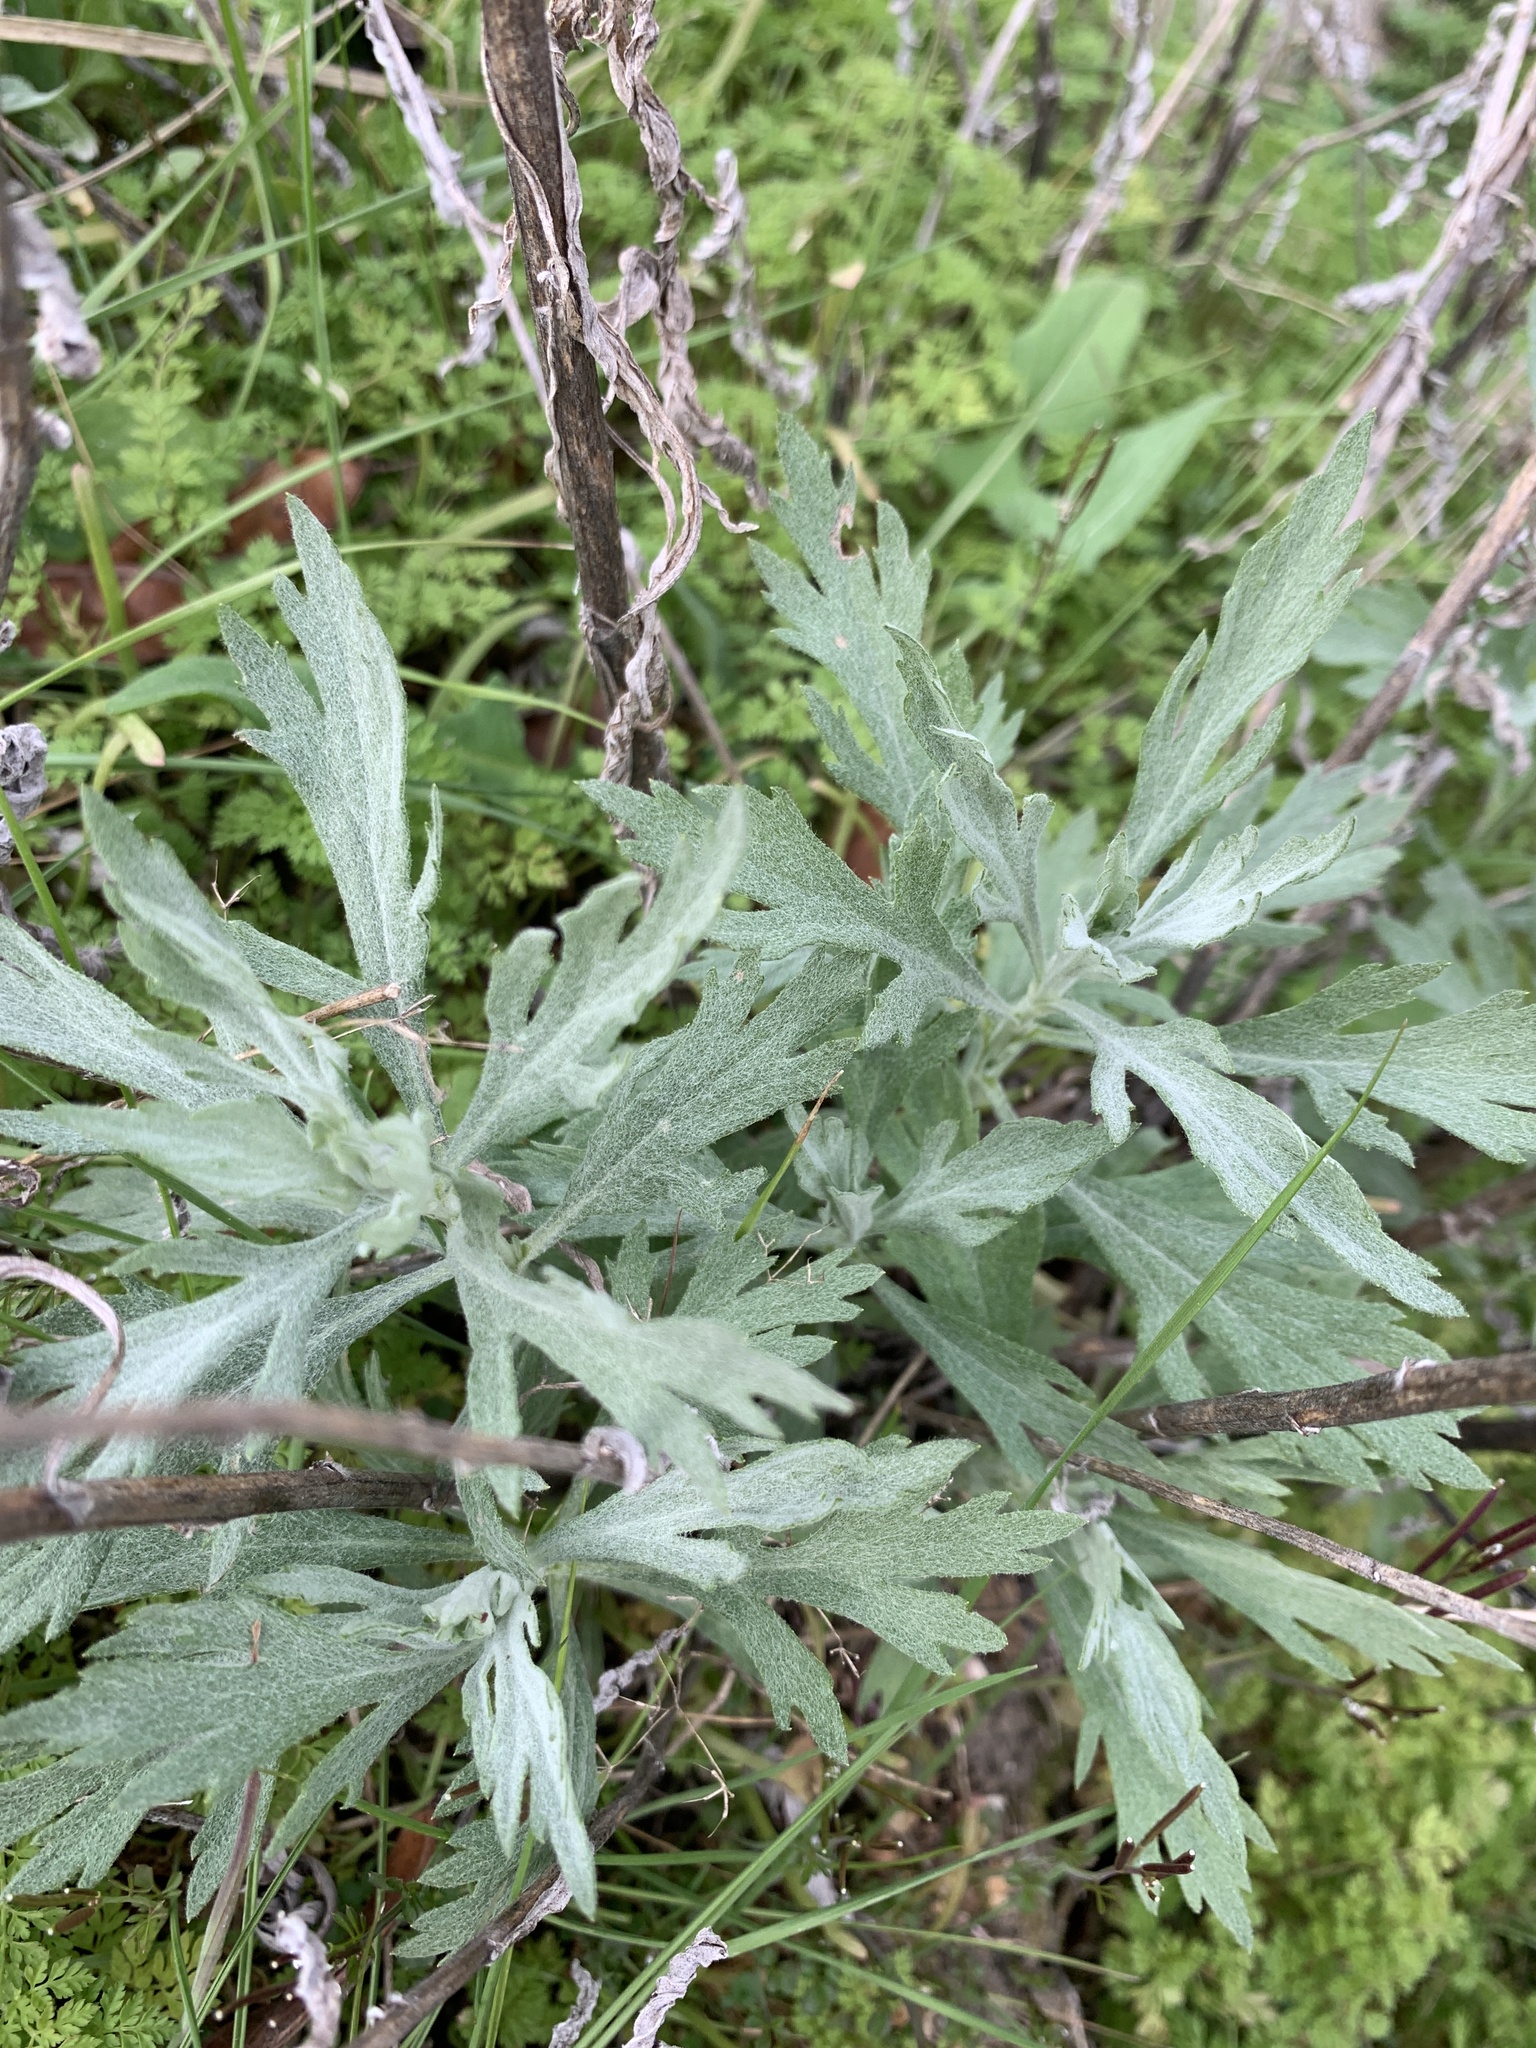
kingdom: Plantae
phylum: Tracheophyta
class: Magnoliopsida
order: Asterales
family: Asteraceae
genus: Artemisia
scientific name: Artemisia douglasiana
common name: Northwest mugwort
